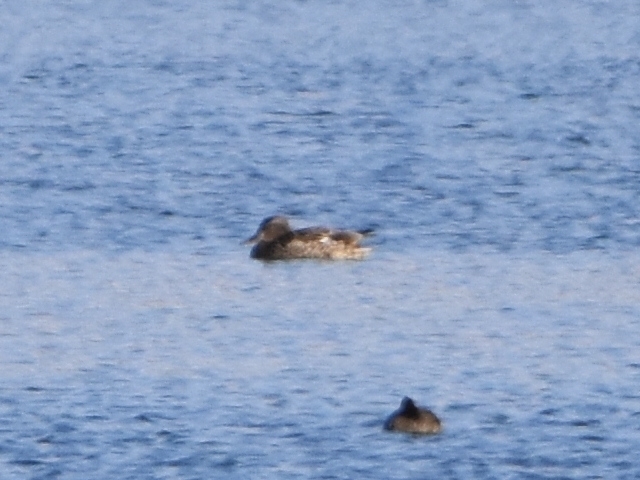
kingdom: Animalia
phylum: Chordata
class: Aves
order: Anseriformes
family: Anatidae
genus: Anas
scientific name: Anas platyrhynchos
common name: Mallard
